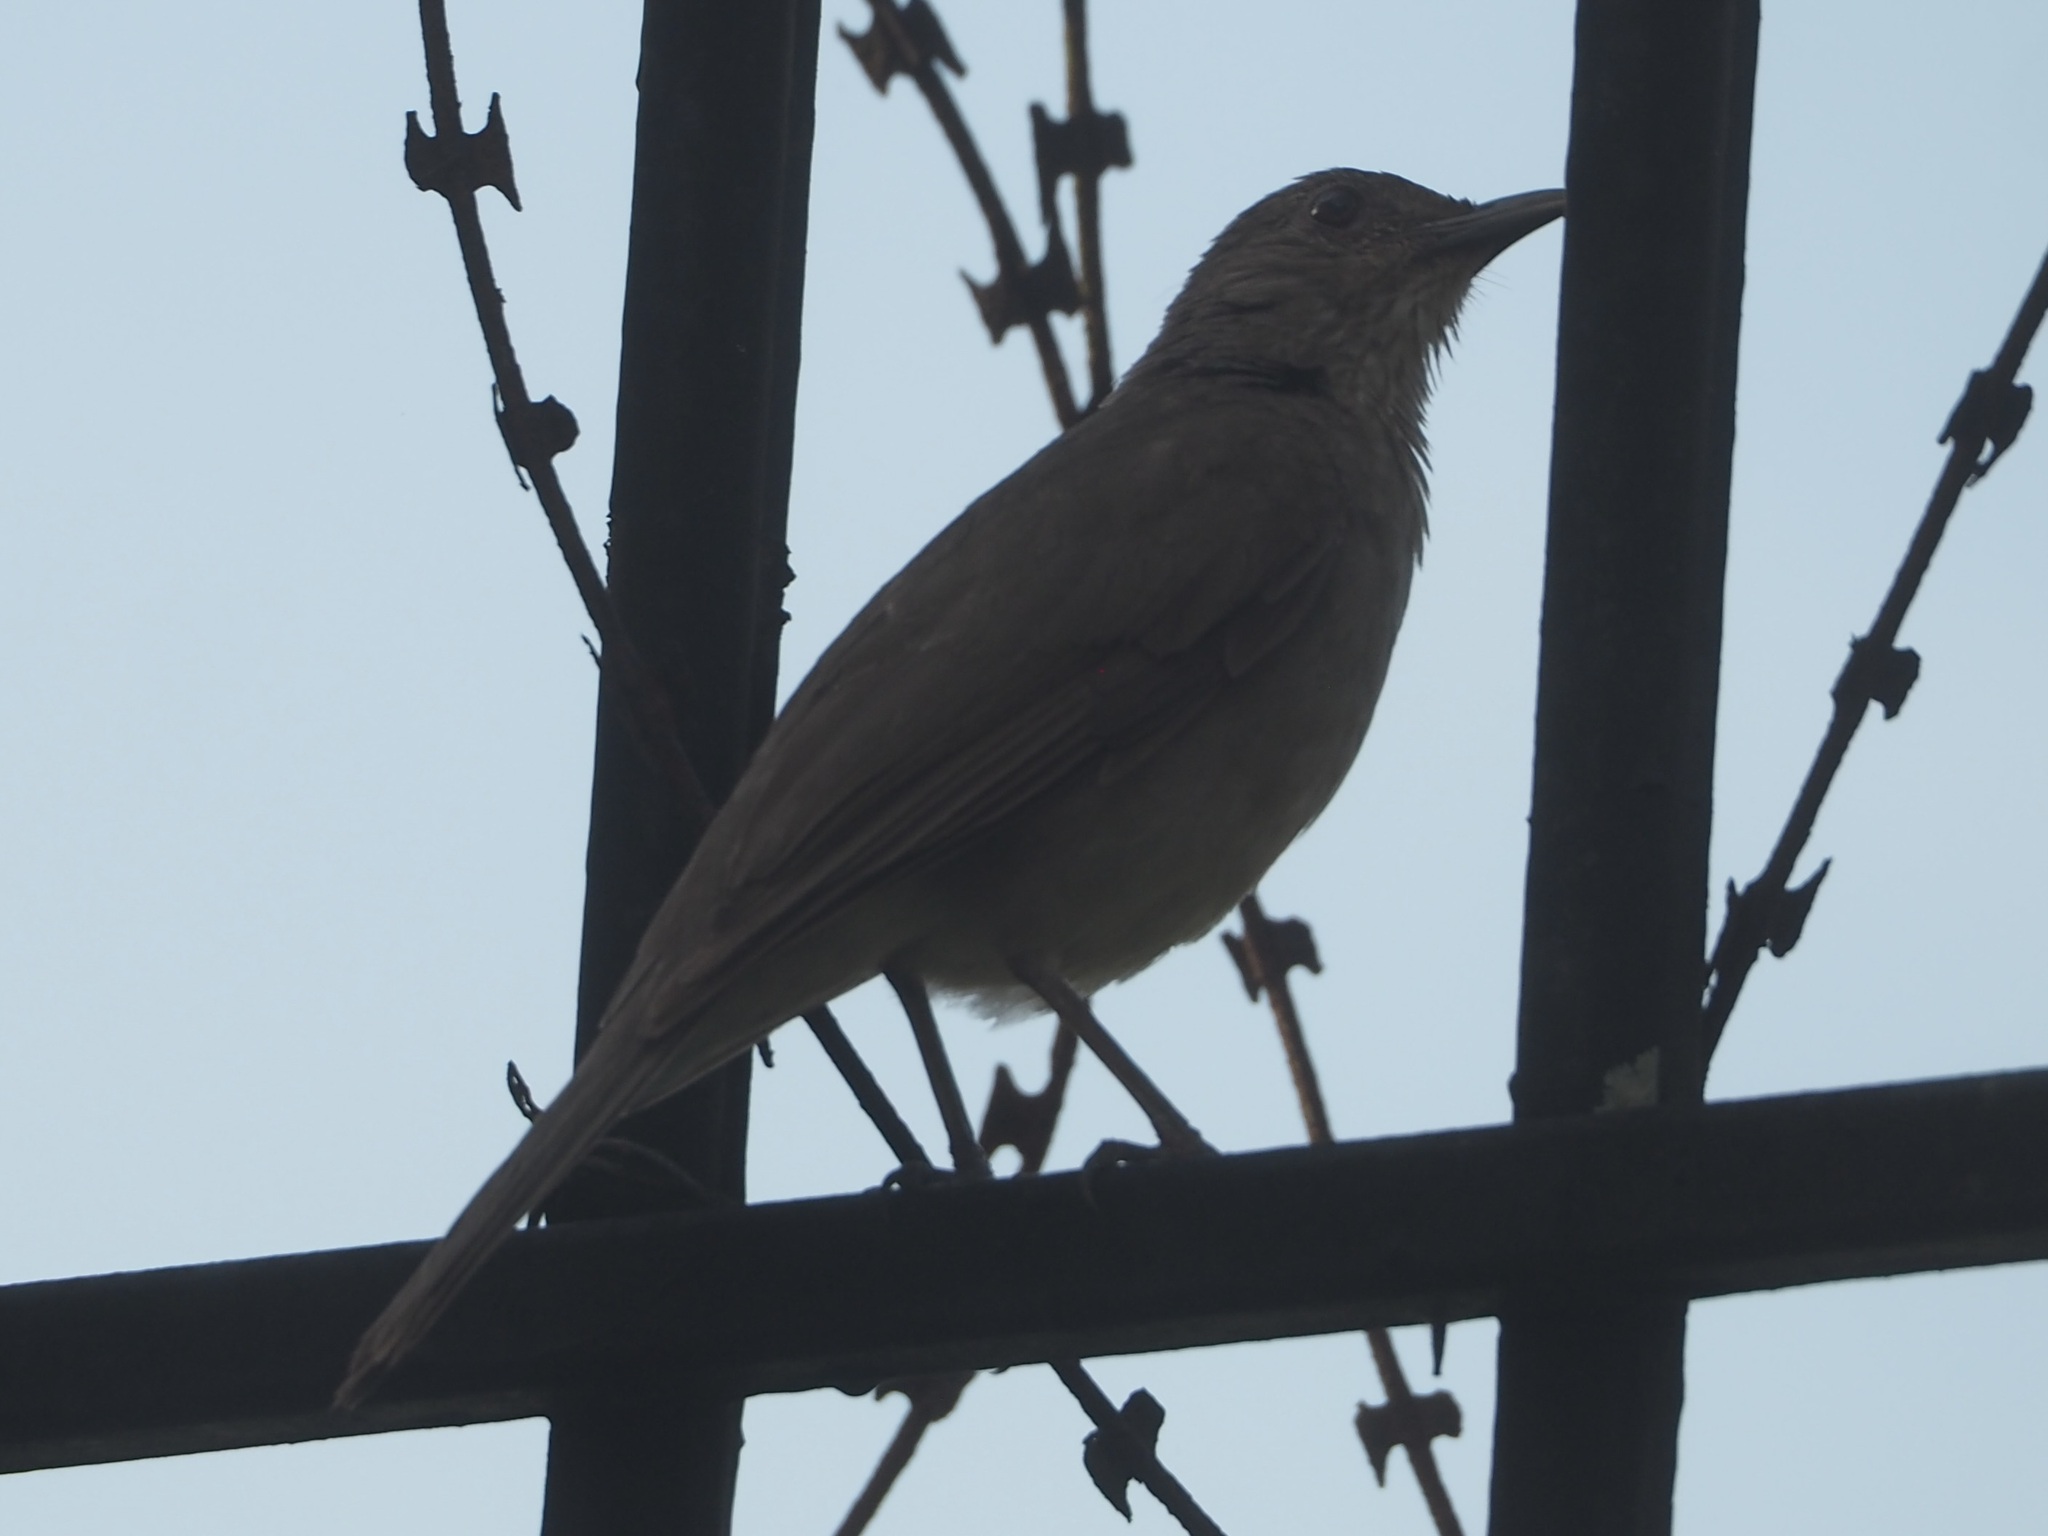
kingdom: Animalia
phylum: Chordata
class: Aves
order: Passeriformes
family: Turdidae
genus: Turdus
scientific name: Turdus leucomelas
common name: Pale-breasted thrush
